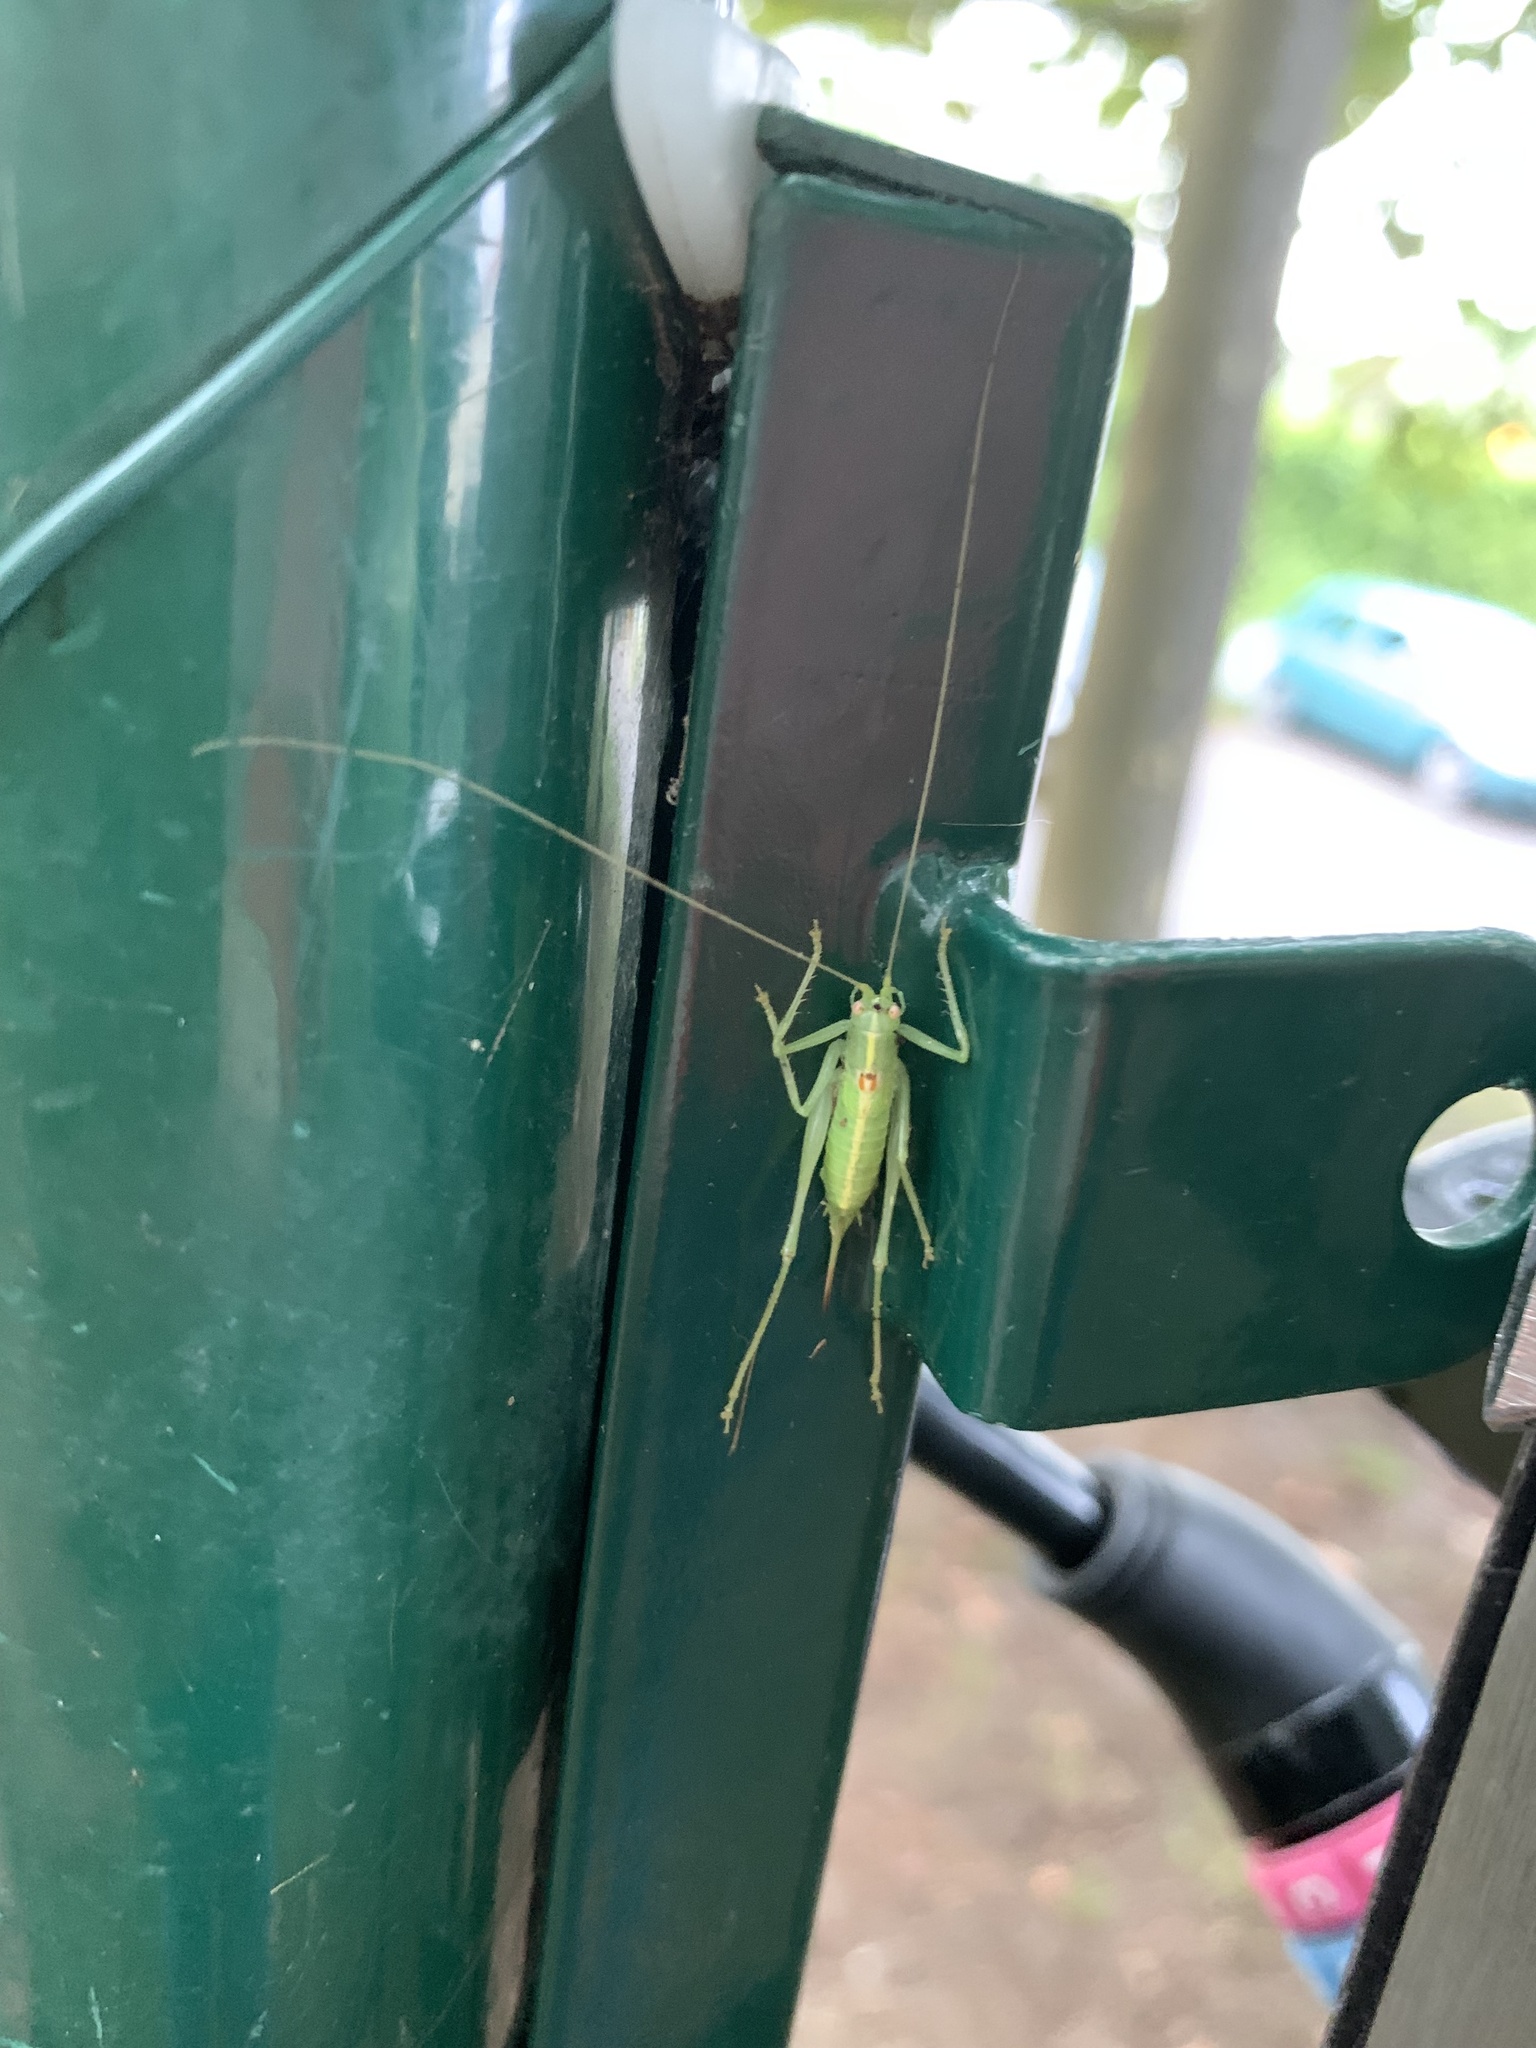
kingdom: Animalia
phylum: Arthropoda
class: Insecta
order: Orthoptera
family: Tettigoniidae
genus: Meconema
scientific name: Meconema meridionale
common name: Southern oak bush-cricket
